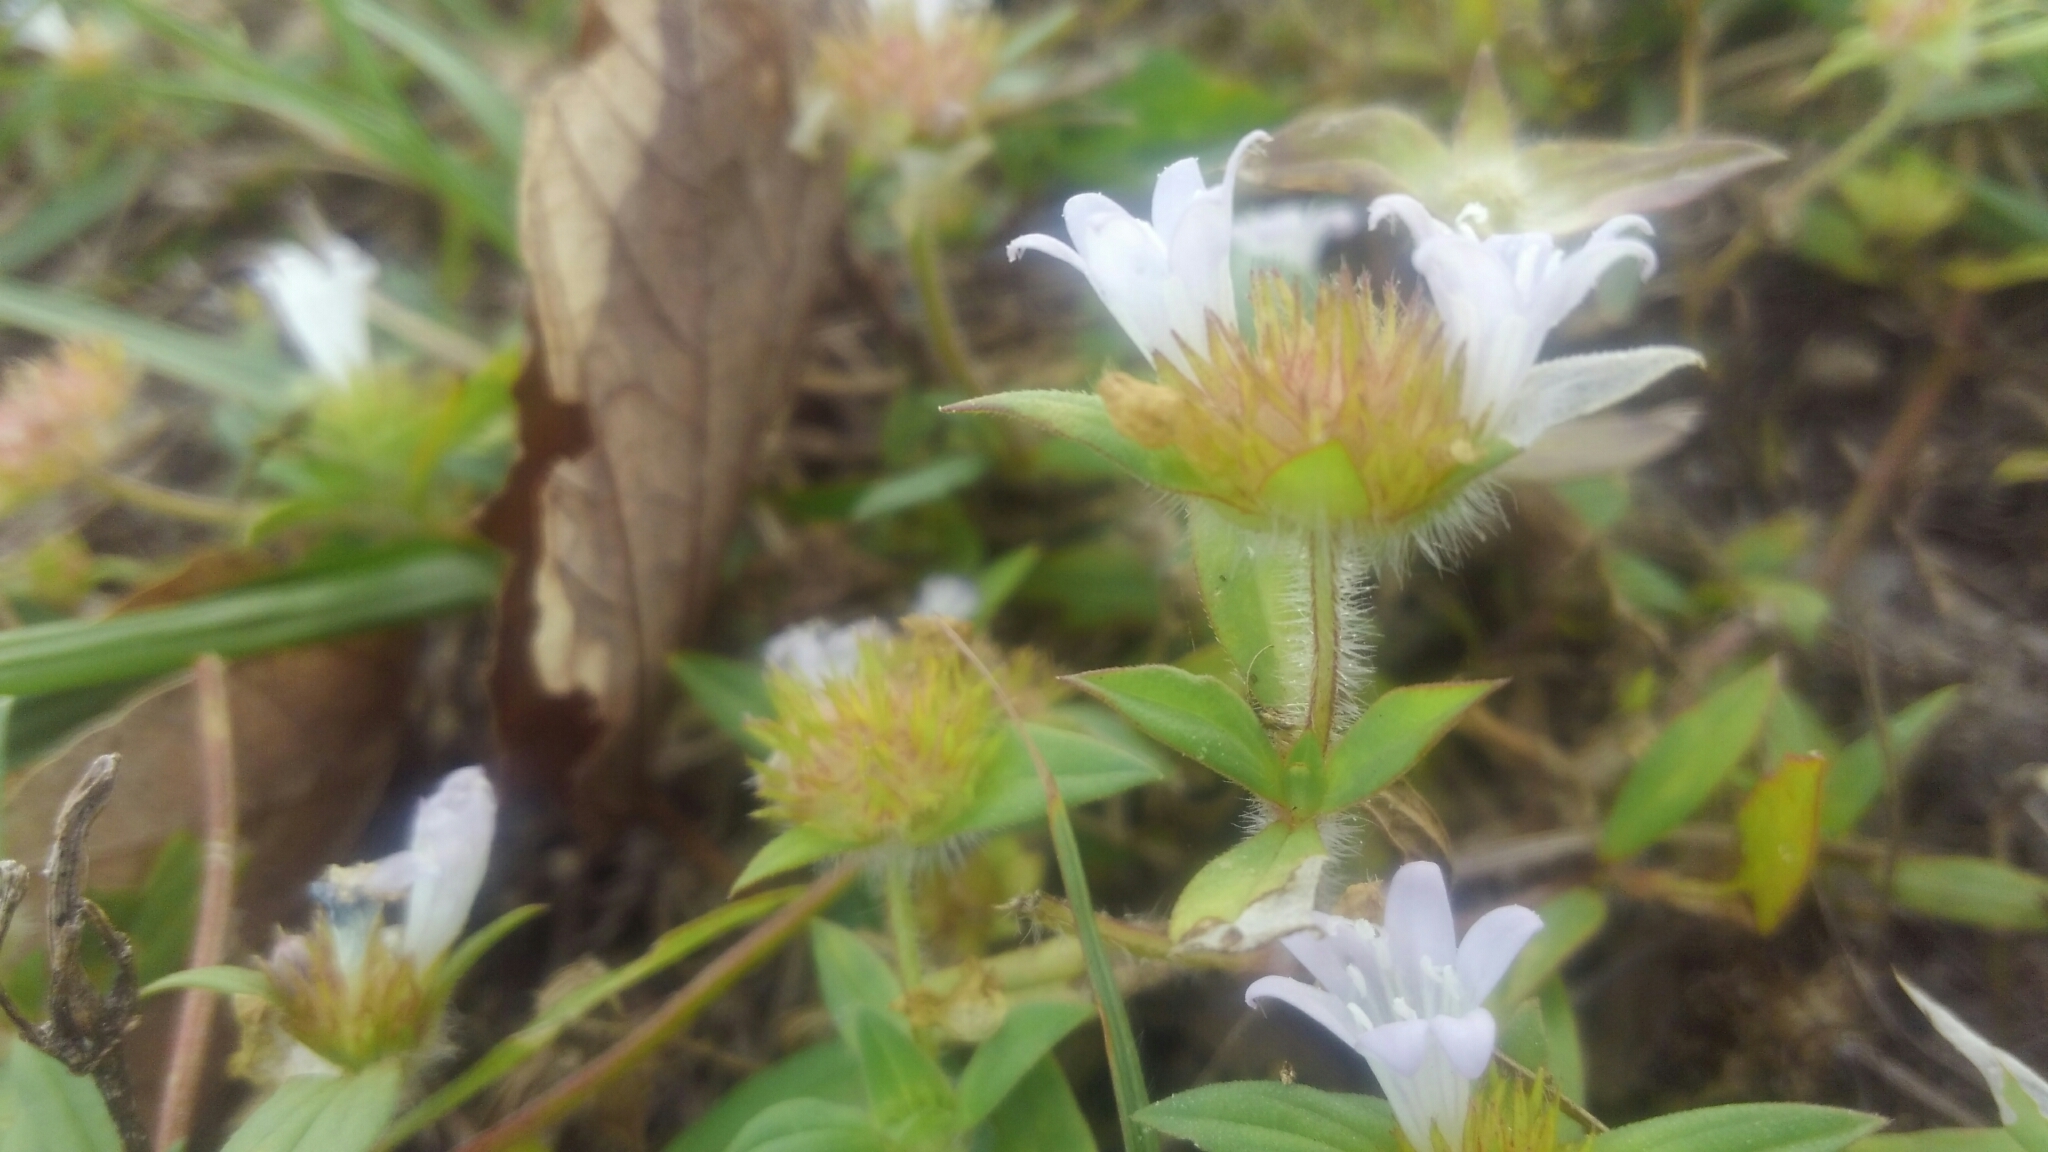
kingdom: Plantae
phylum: Tracheophyta
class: Magnoliopsida
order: Gentianales
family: Rubiaceae
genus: Richardia
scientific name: Richardia grandiflora
